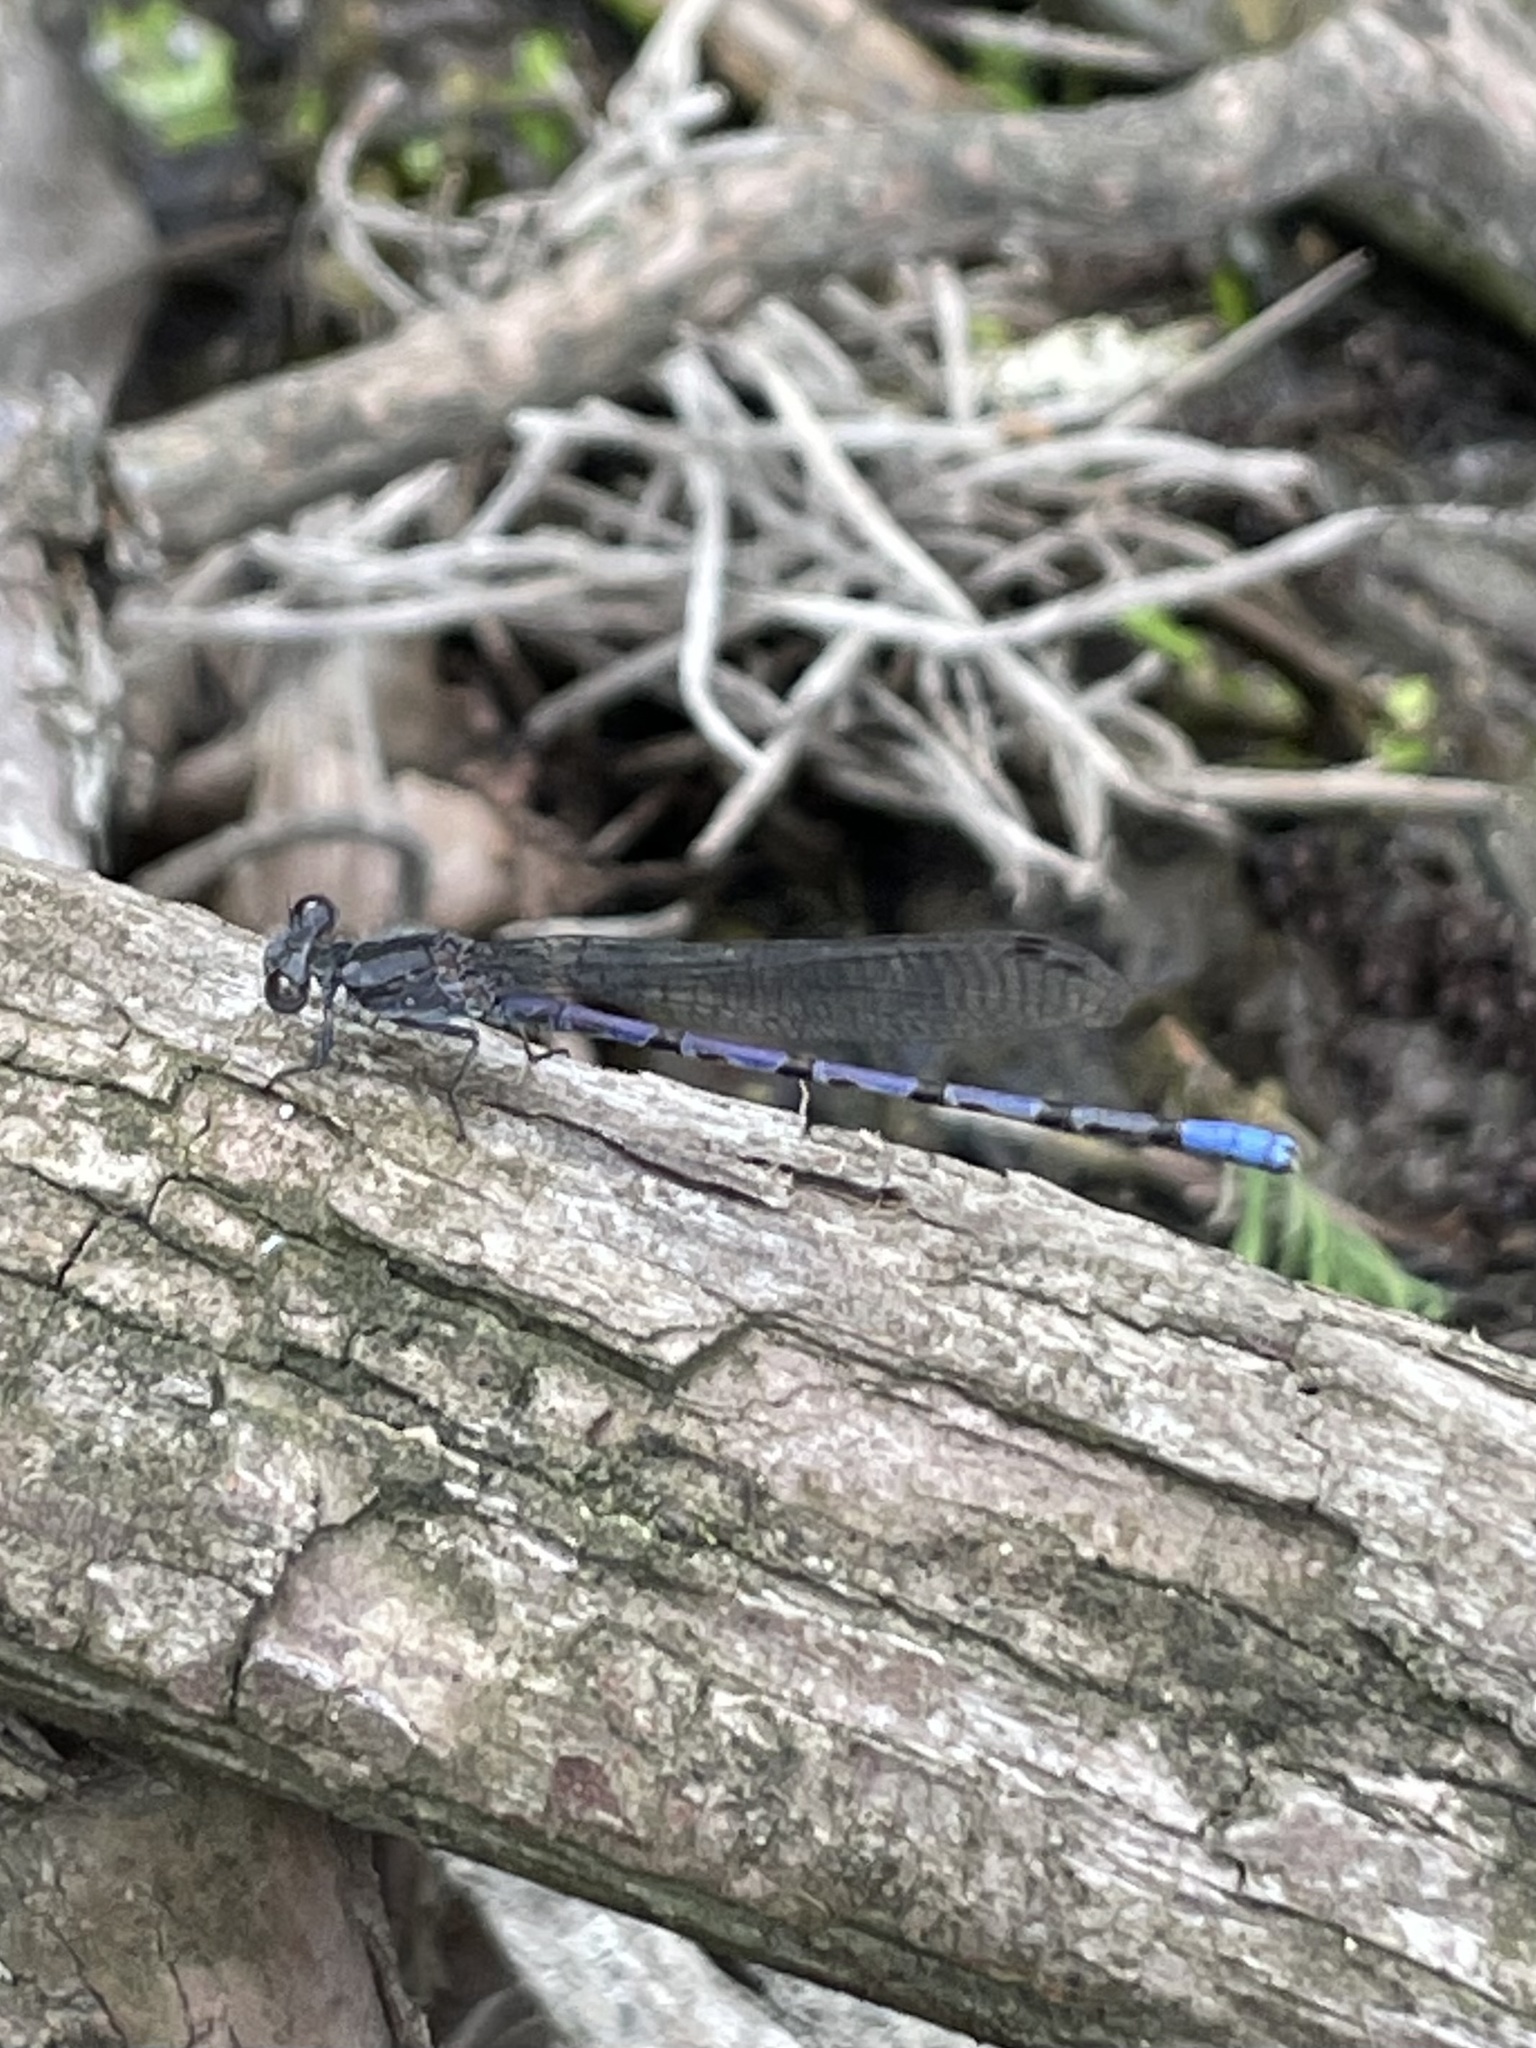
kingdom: Animalia
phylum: Arthropoda
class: Insecta
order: Odonata
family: Coenagrionidae
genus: Argia
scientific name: Argia immunda
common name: Kiowa dancer
